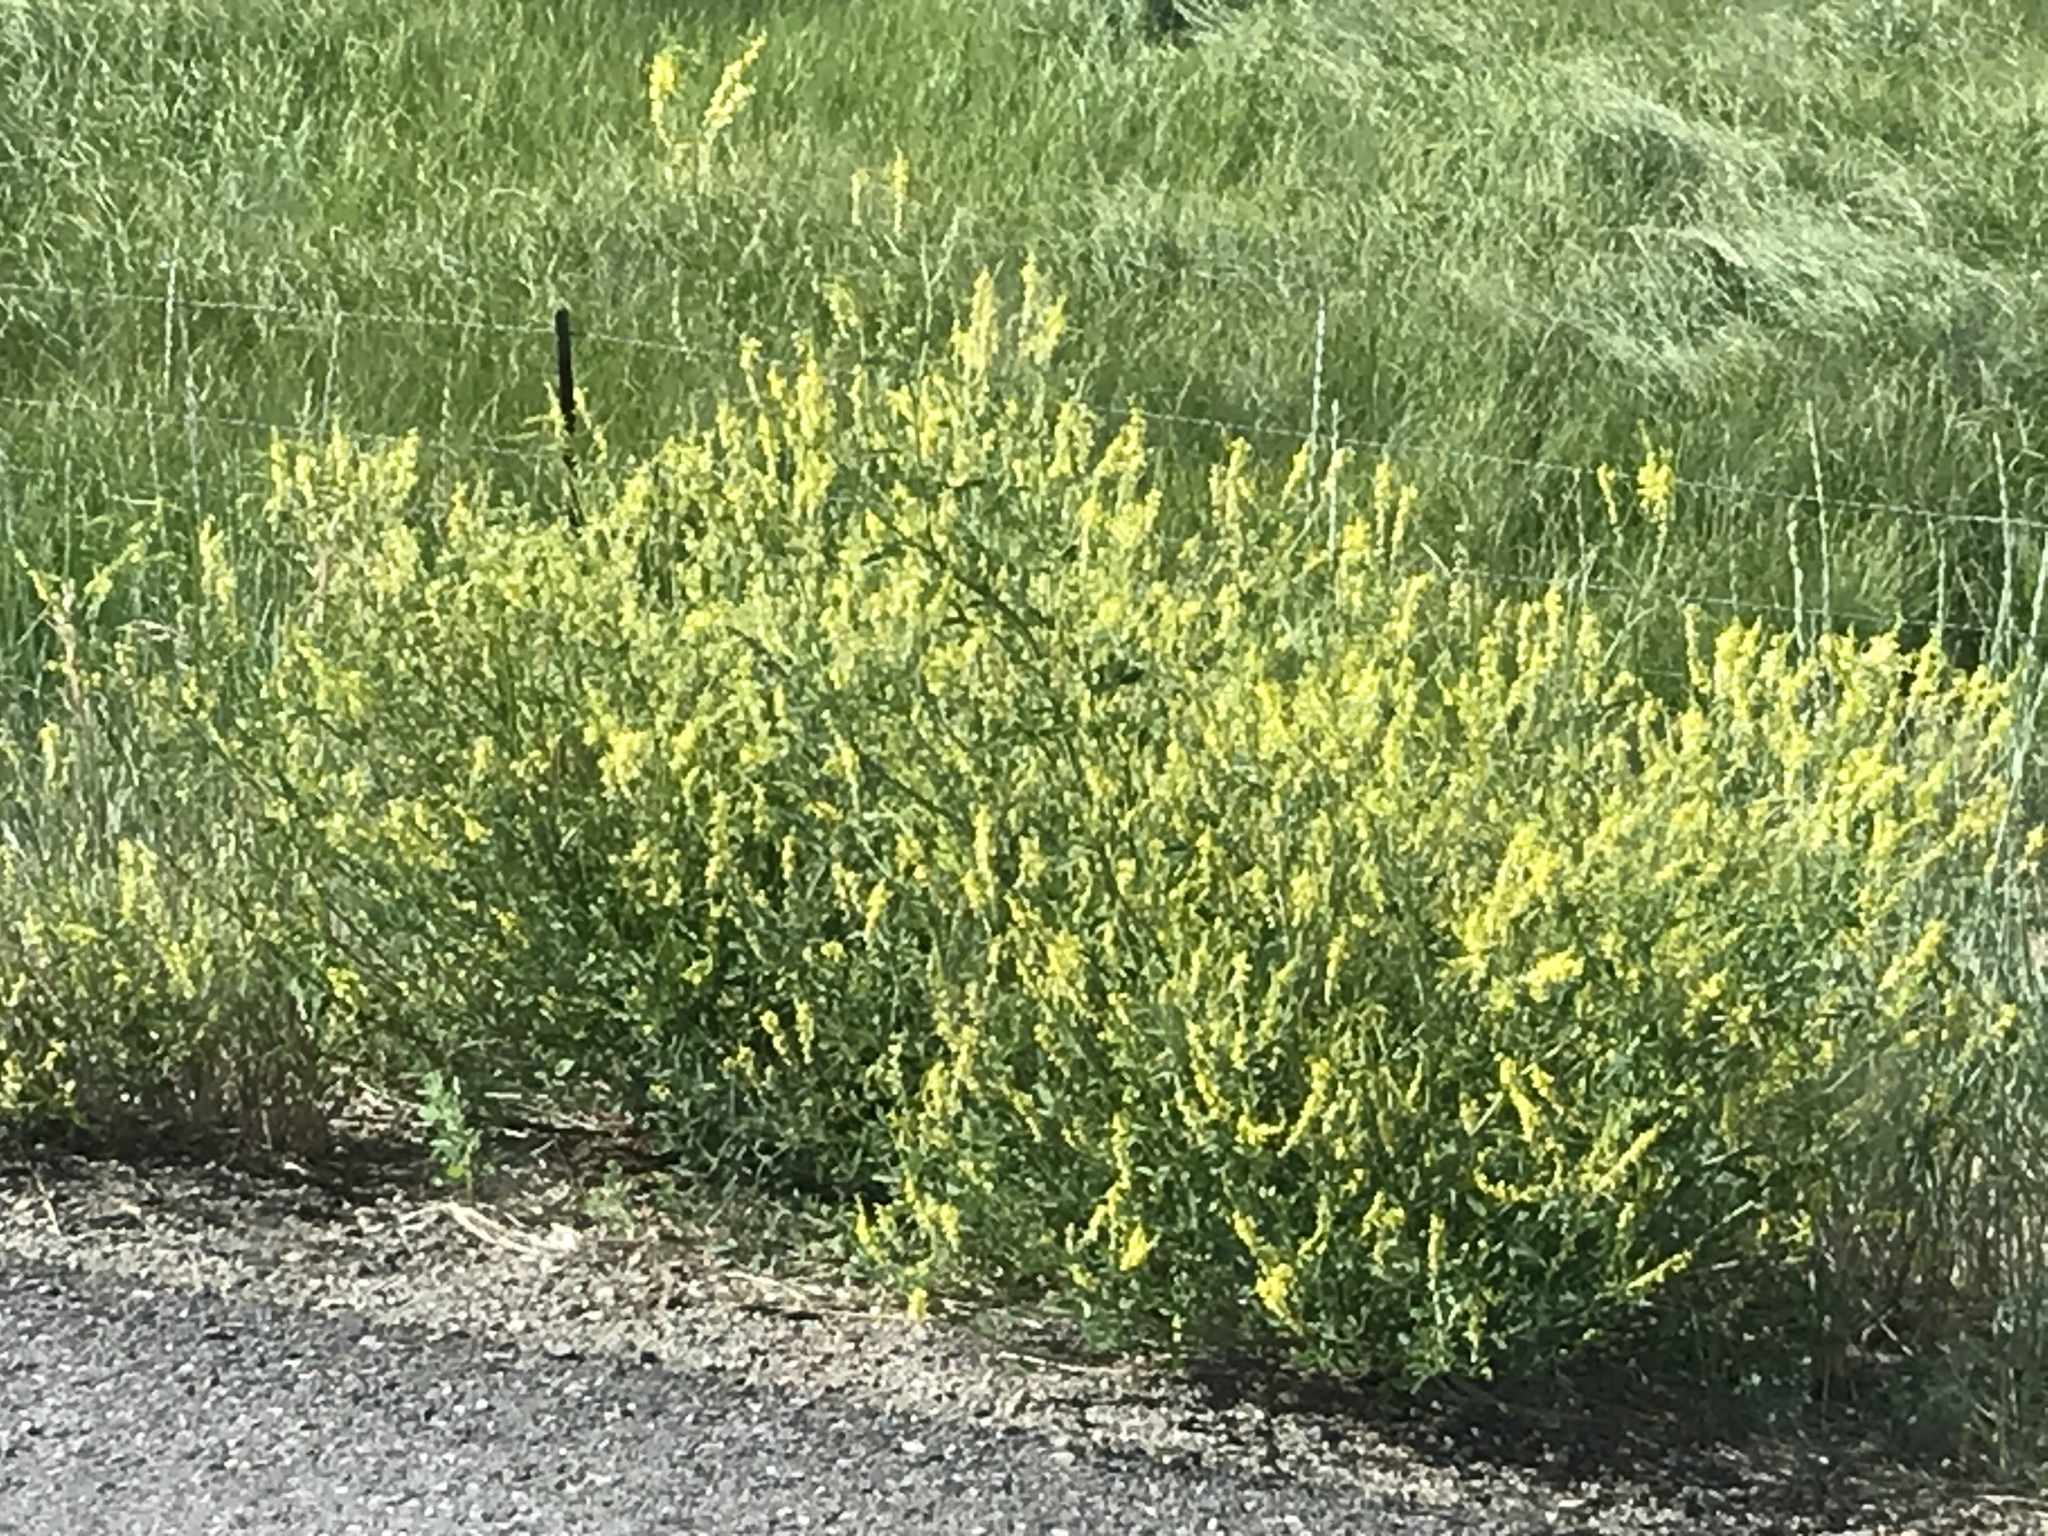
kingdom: Plantae
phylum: Tracheophyta
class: Magnoliopsida
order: Fabales
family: Fabaceae
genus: Melilotus
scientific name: Melilotus officinalis
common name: Sweetclover
